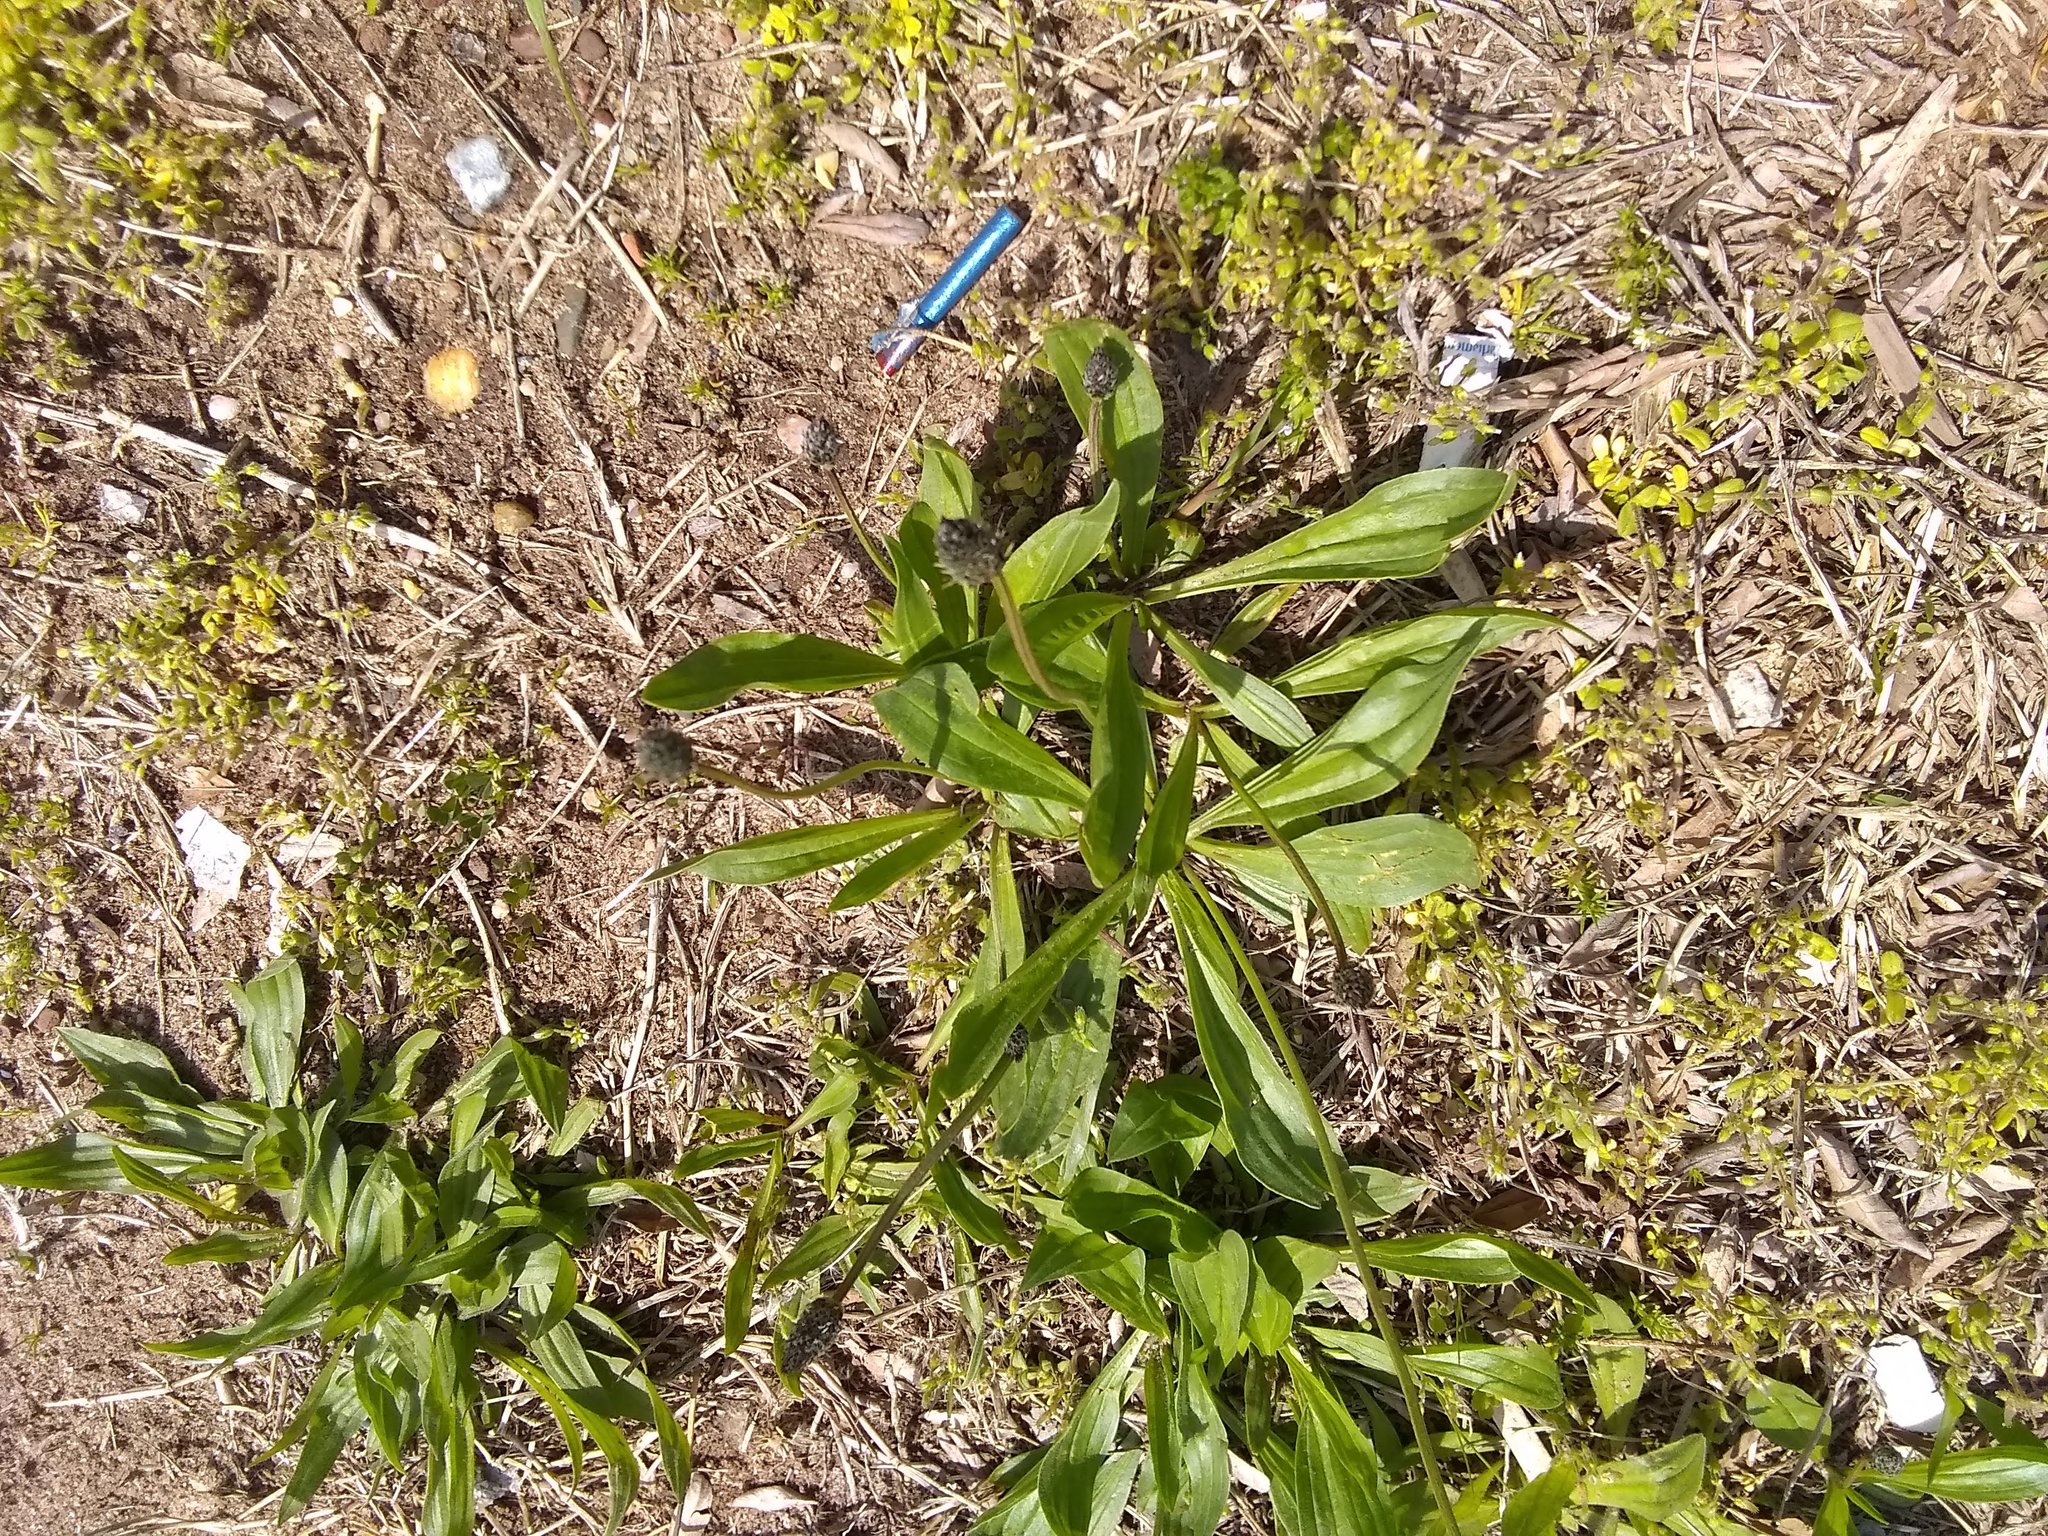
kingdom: Plantae
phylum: Tracheophyta
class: Magnoliopsida
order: Lamiales
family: Plantaginaceae
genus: Plantago
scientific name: Plantago lanceolata
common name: Ribwort plantain
